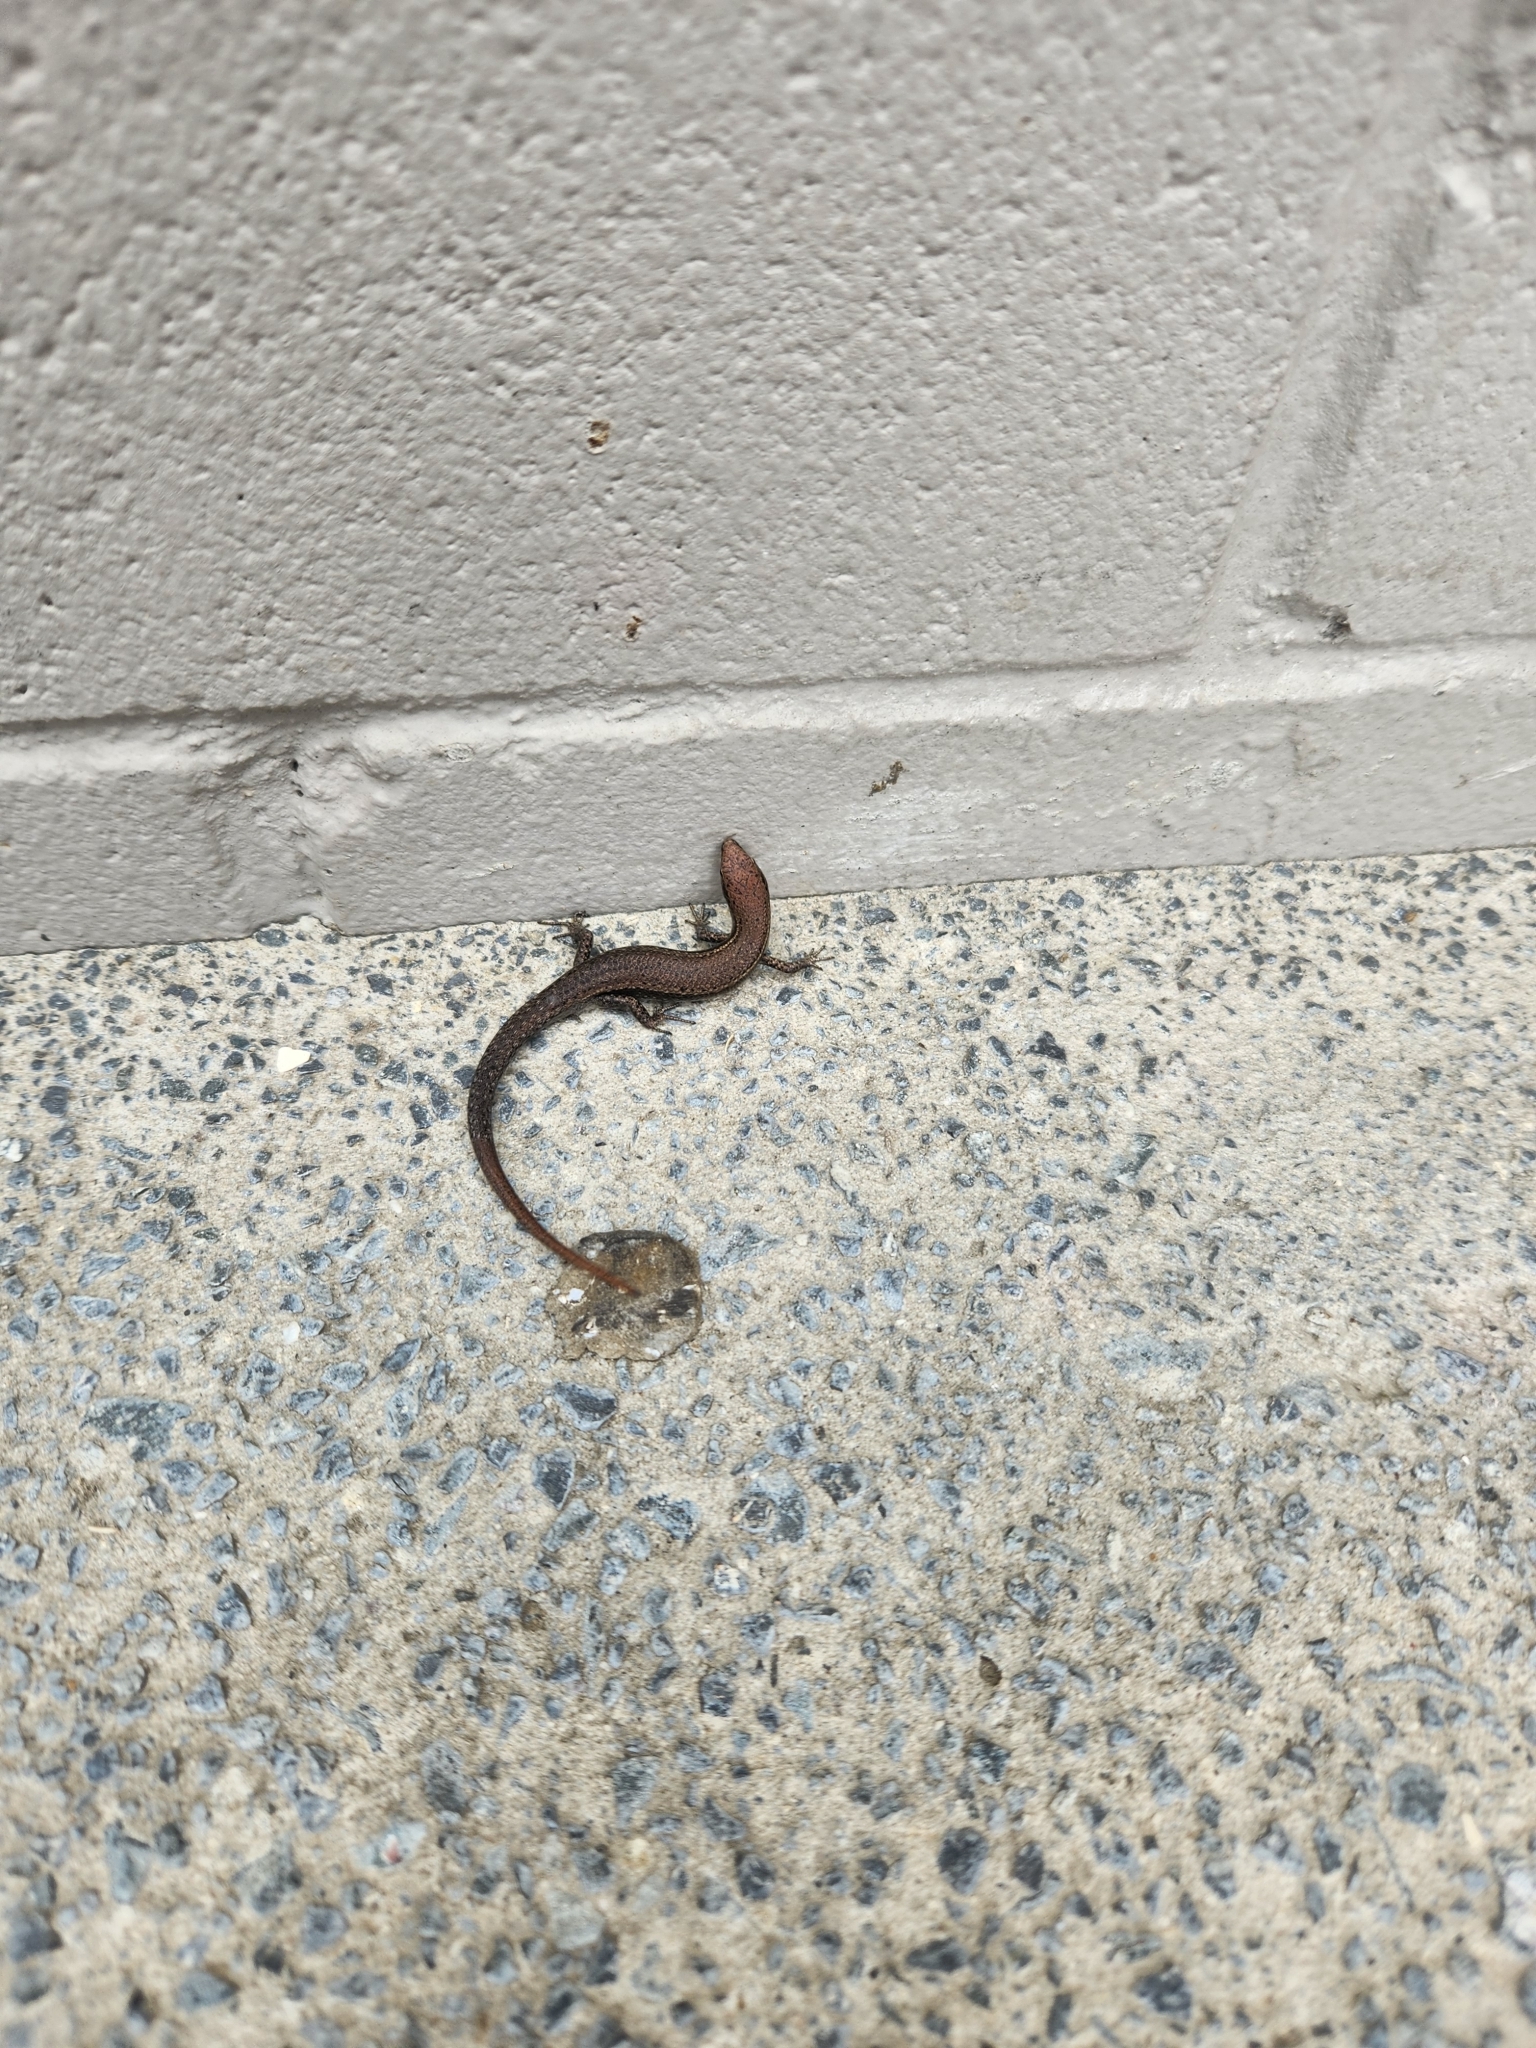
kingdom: Animalia
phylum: Chordata
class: Squamata
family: Scincidae
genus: Lampropholis
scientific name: Lampropholis delicata
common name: Plague skink
